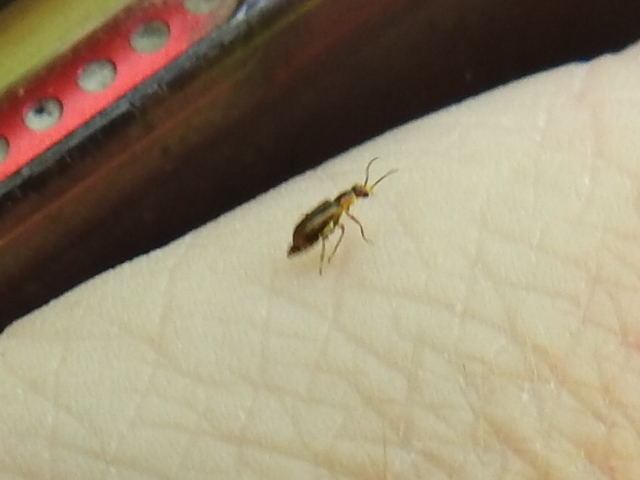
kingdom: Animalia
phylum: Arthropoda
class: Insecta
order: Coleoptera
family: Malachiidae
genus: Attalus
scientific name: Attalus
